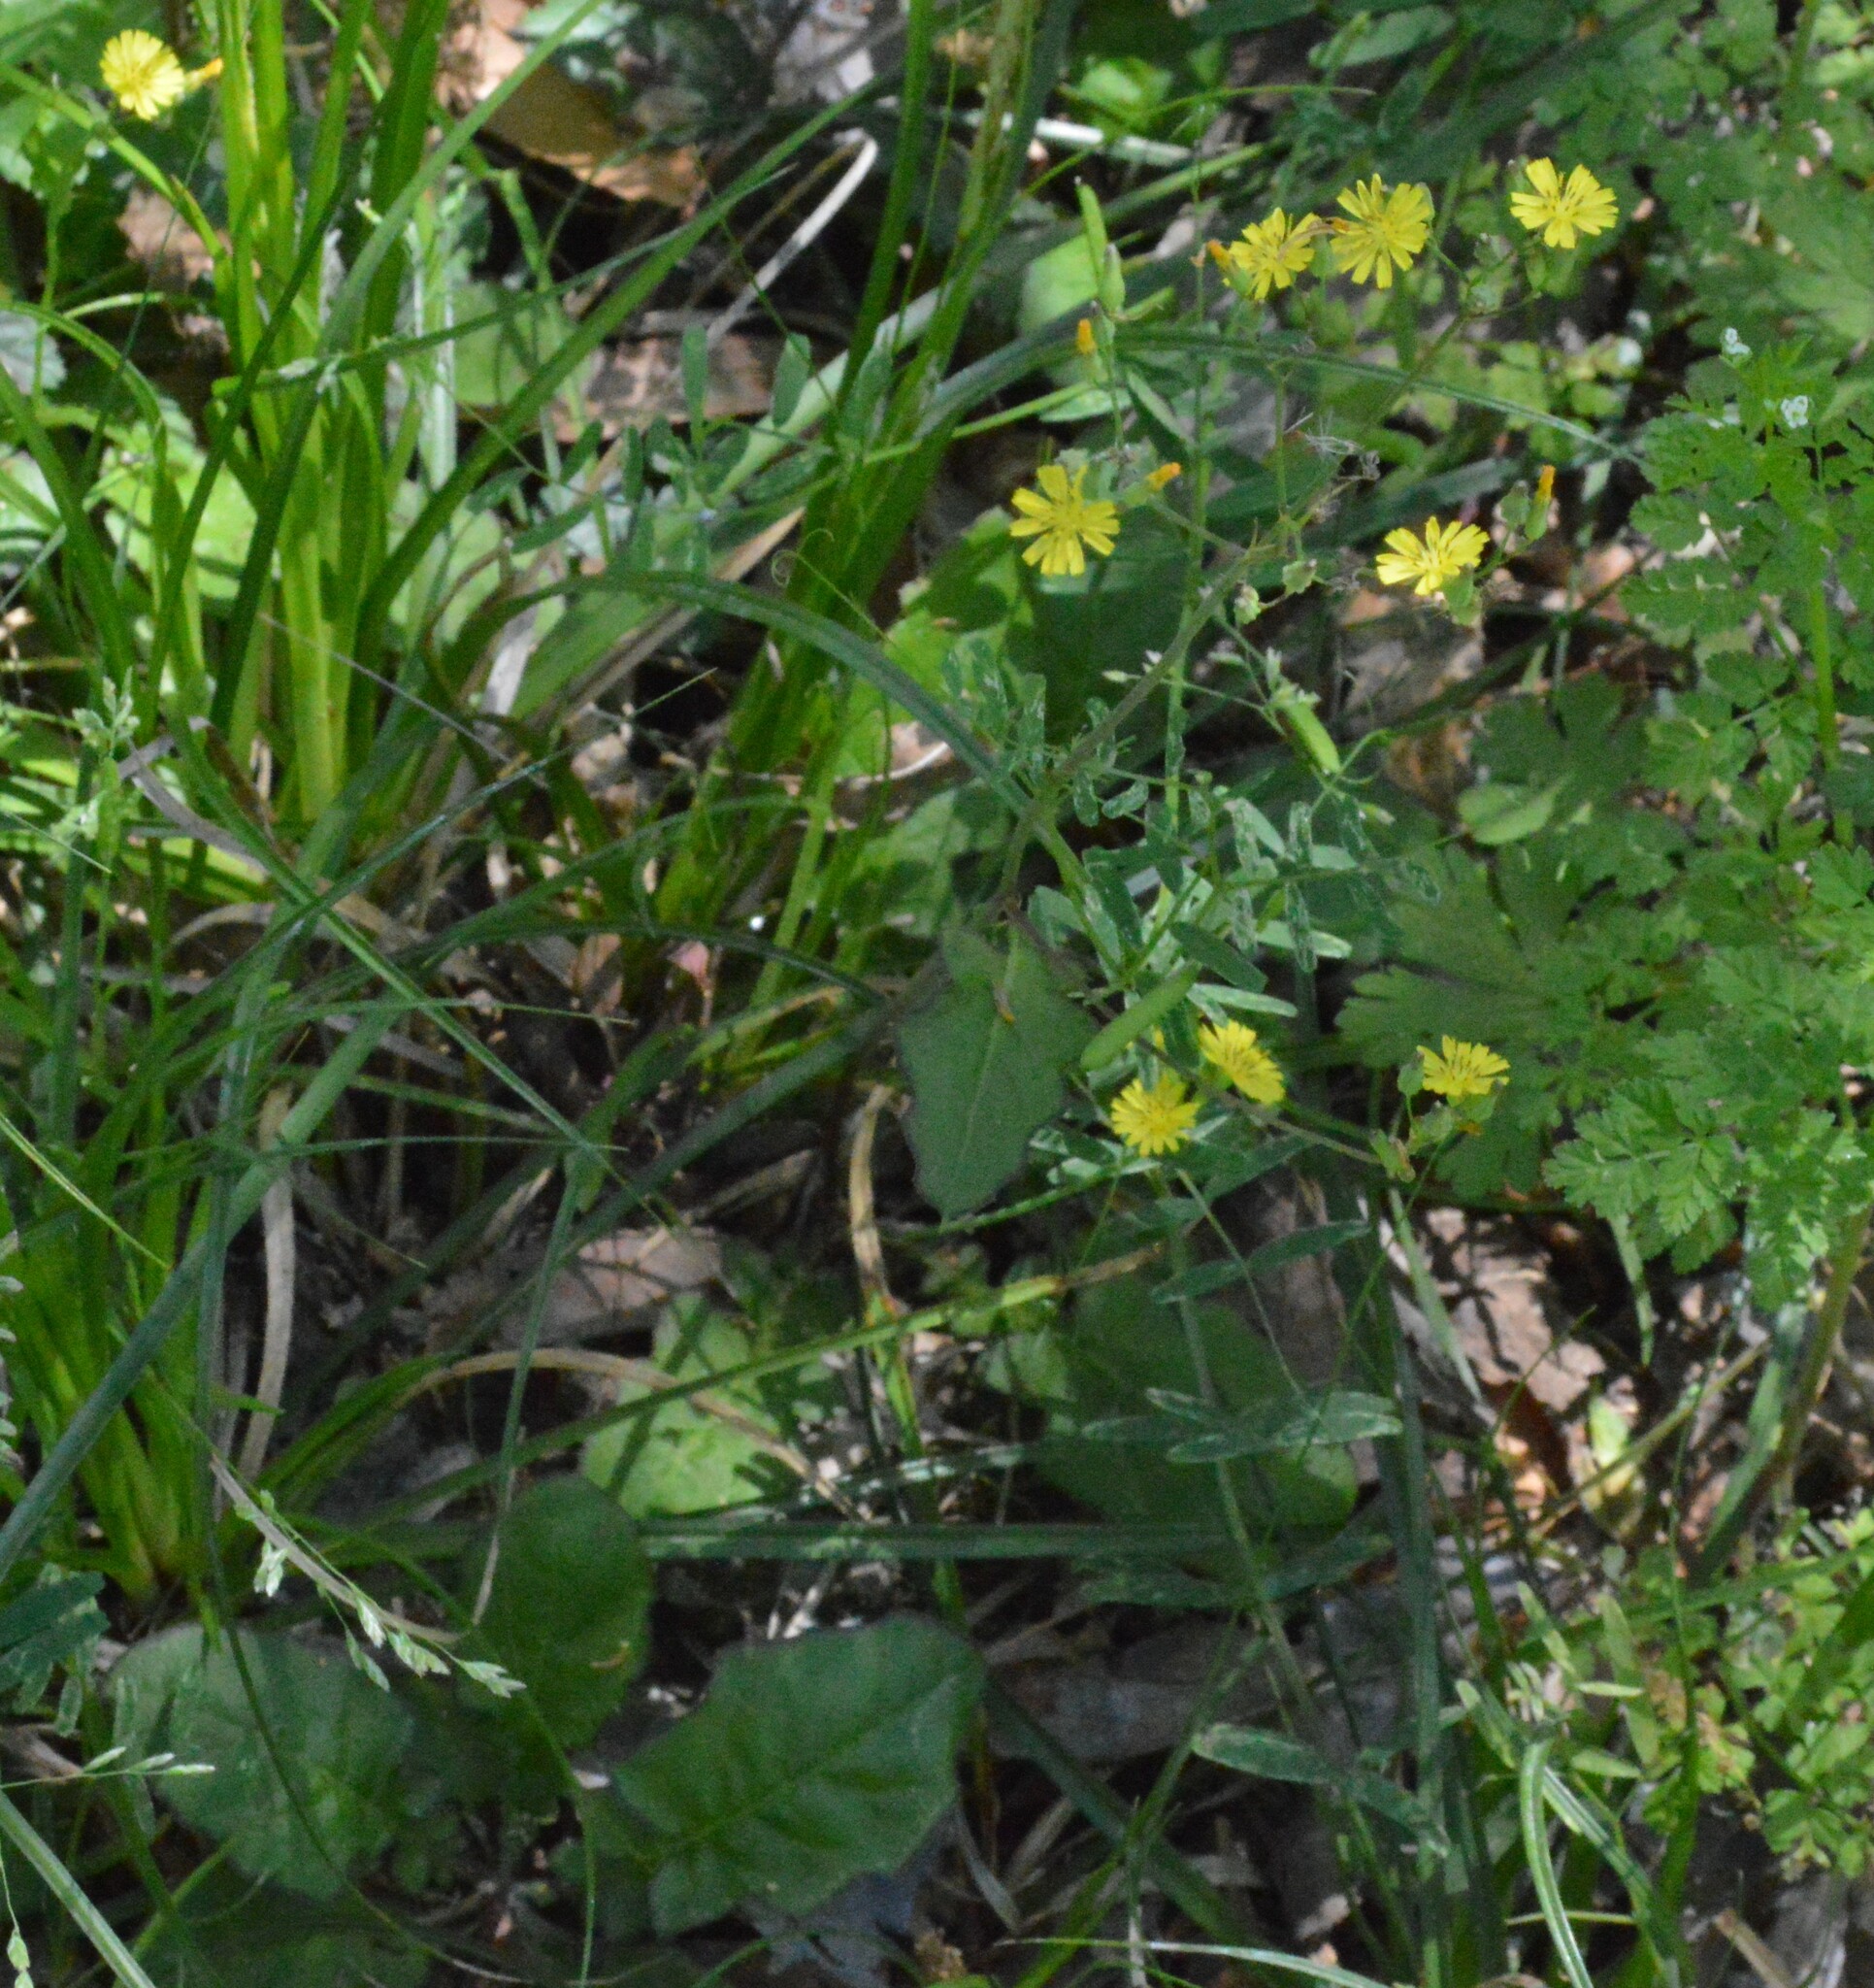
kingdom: Plantae
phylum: Tracheophyta
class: Magnoliopsida
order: Asterales
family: Asteraceae
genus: Youngia
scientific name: Youngia japonica
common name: Oriental false hawksbeard
